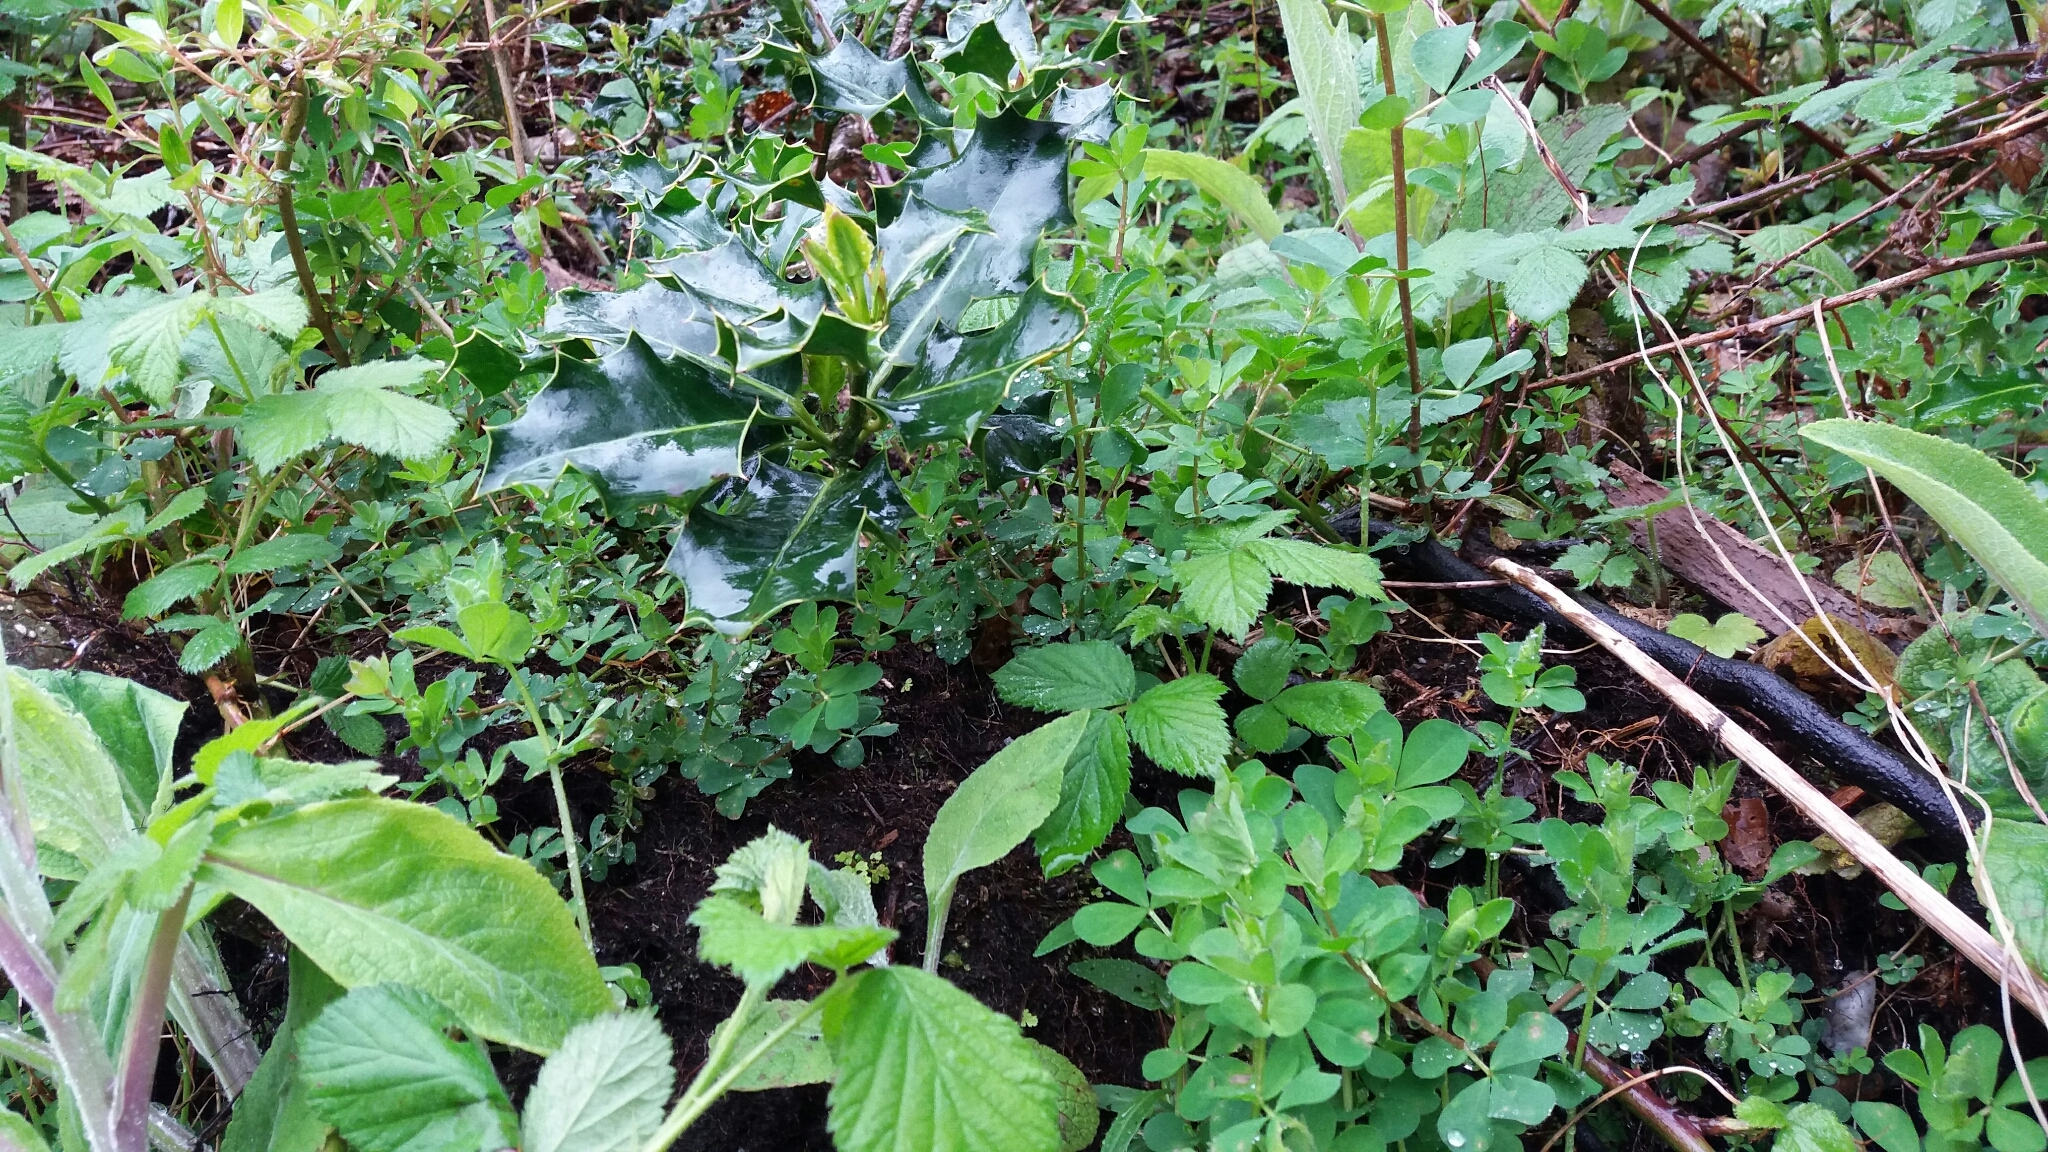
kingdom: Plantae
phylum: Tracheophyta
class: Magnoliopsida
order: Aquifoliales
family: Aquifoliaceae
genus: Ilex
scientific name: Ilex aquifolium
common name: English holly
